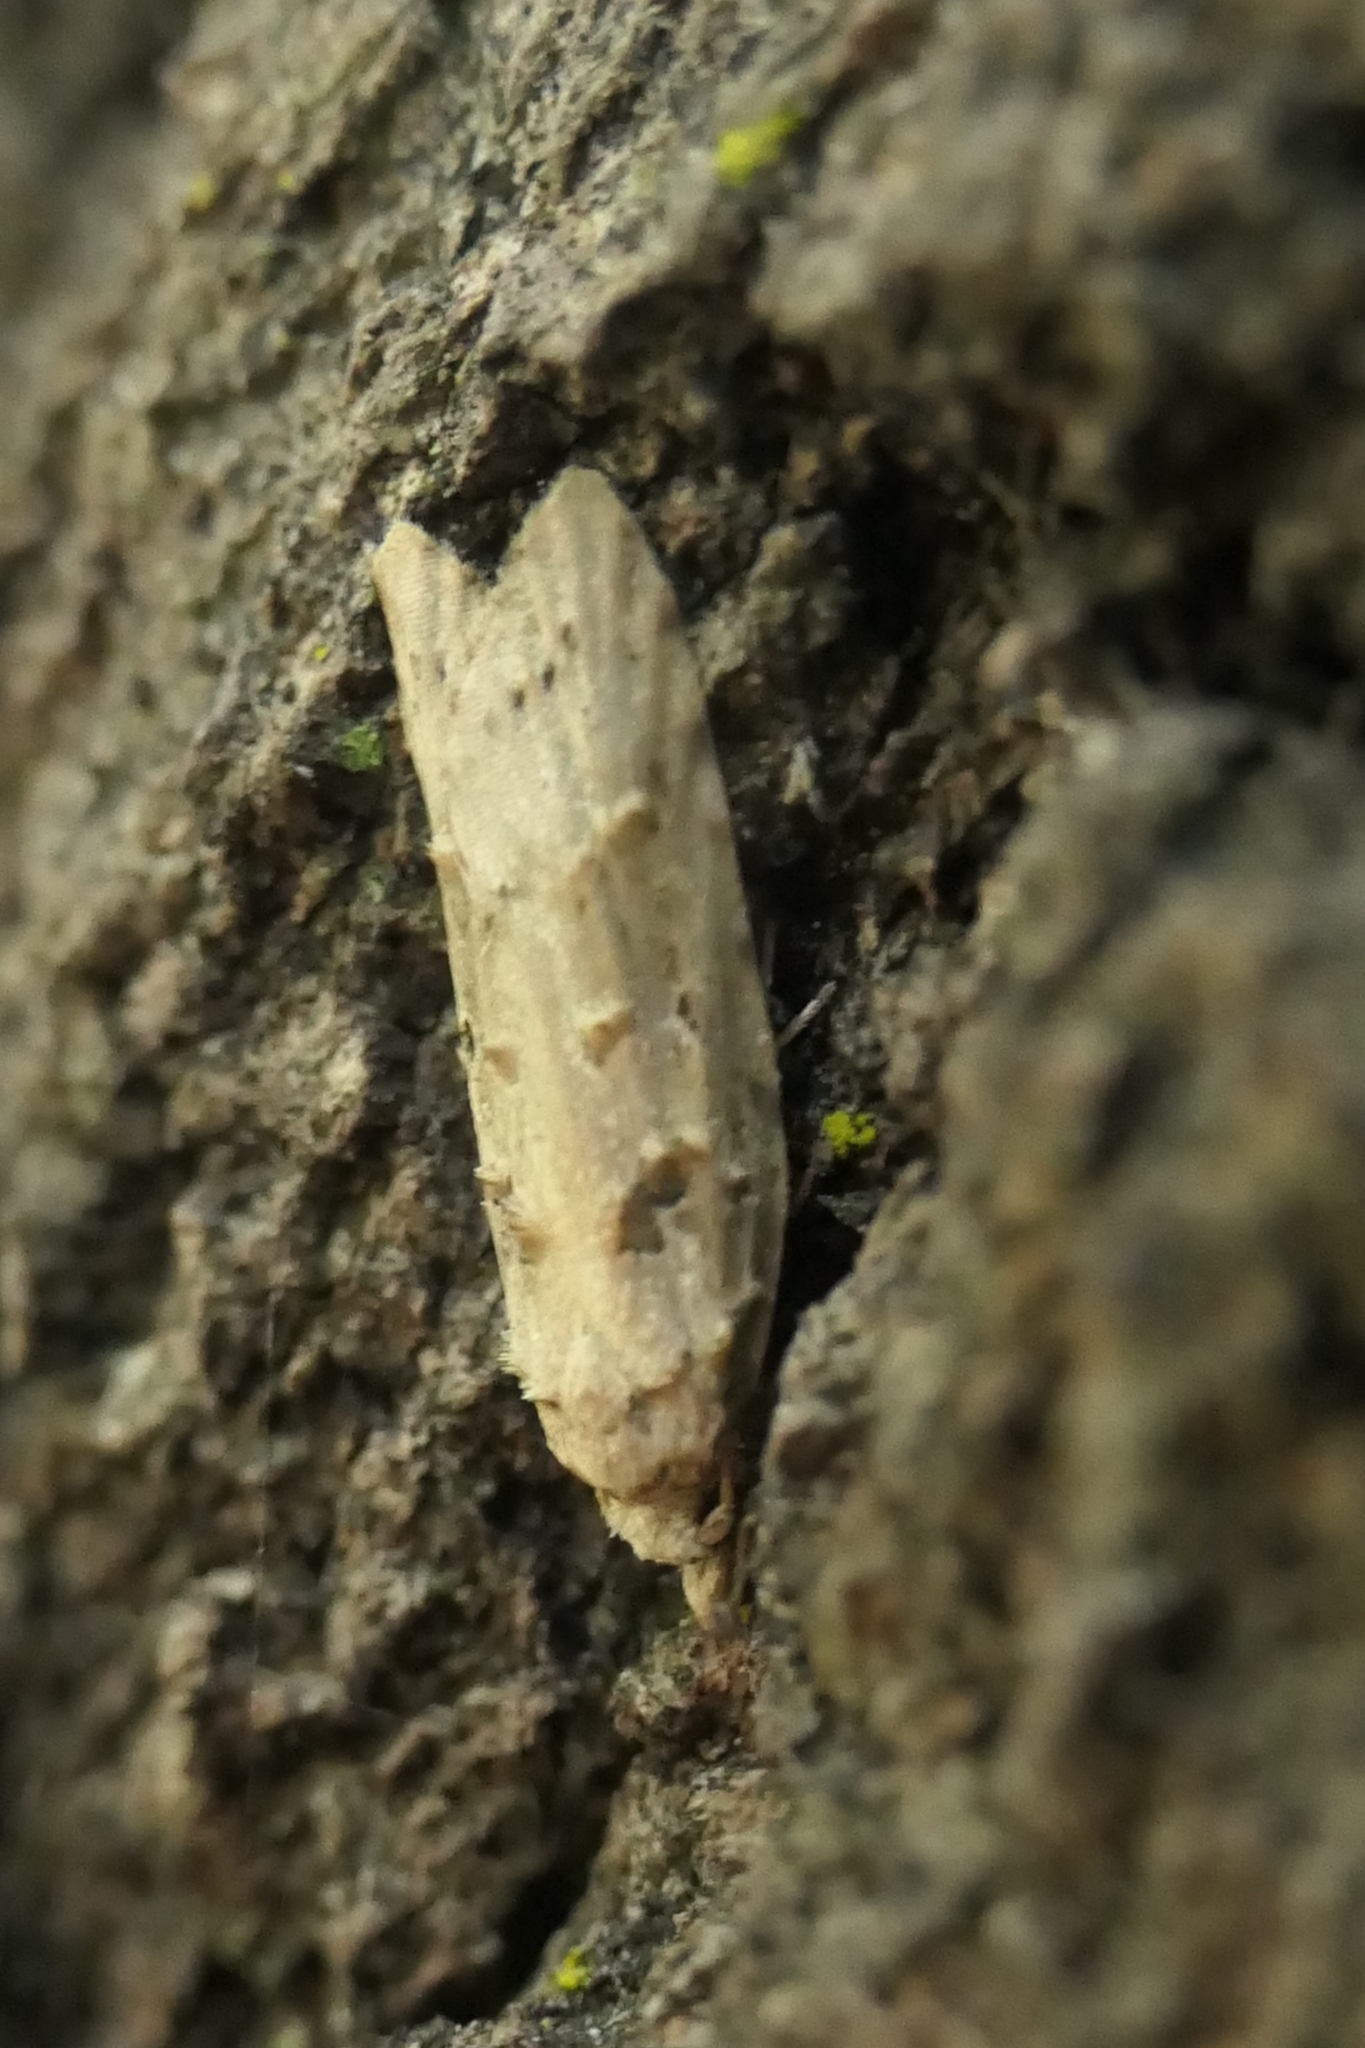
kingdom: Animalia
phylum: Arthropoda
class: Insecta
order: Lepidoptera
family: Carposinidae
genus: Carposina
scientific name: Carposina
